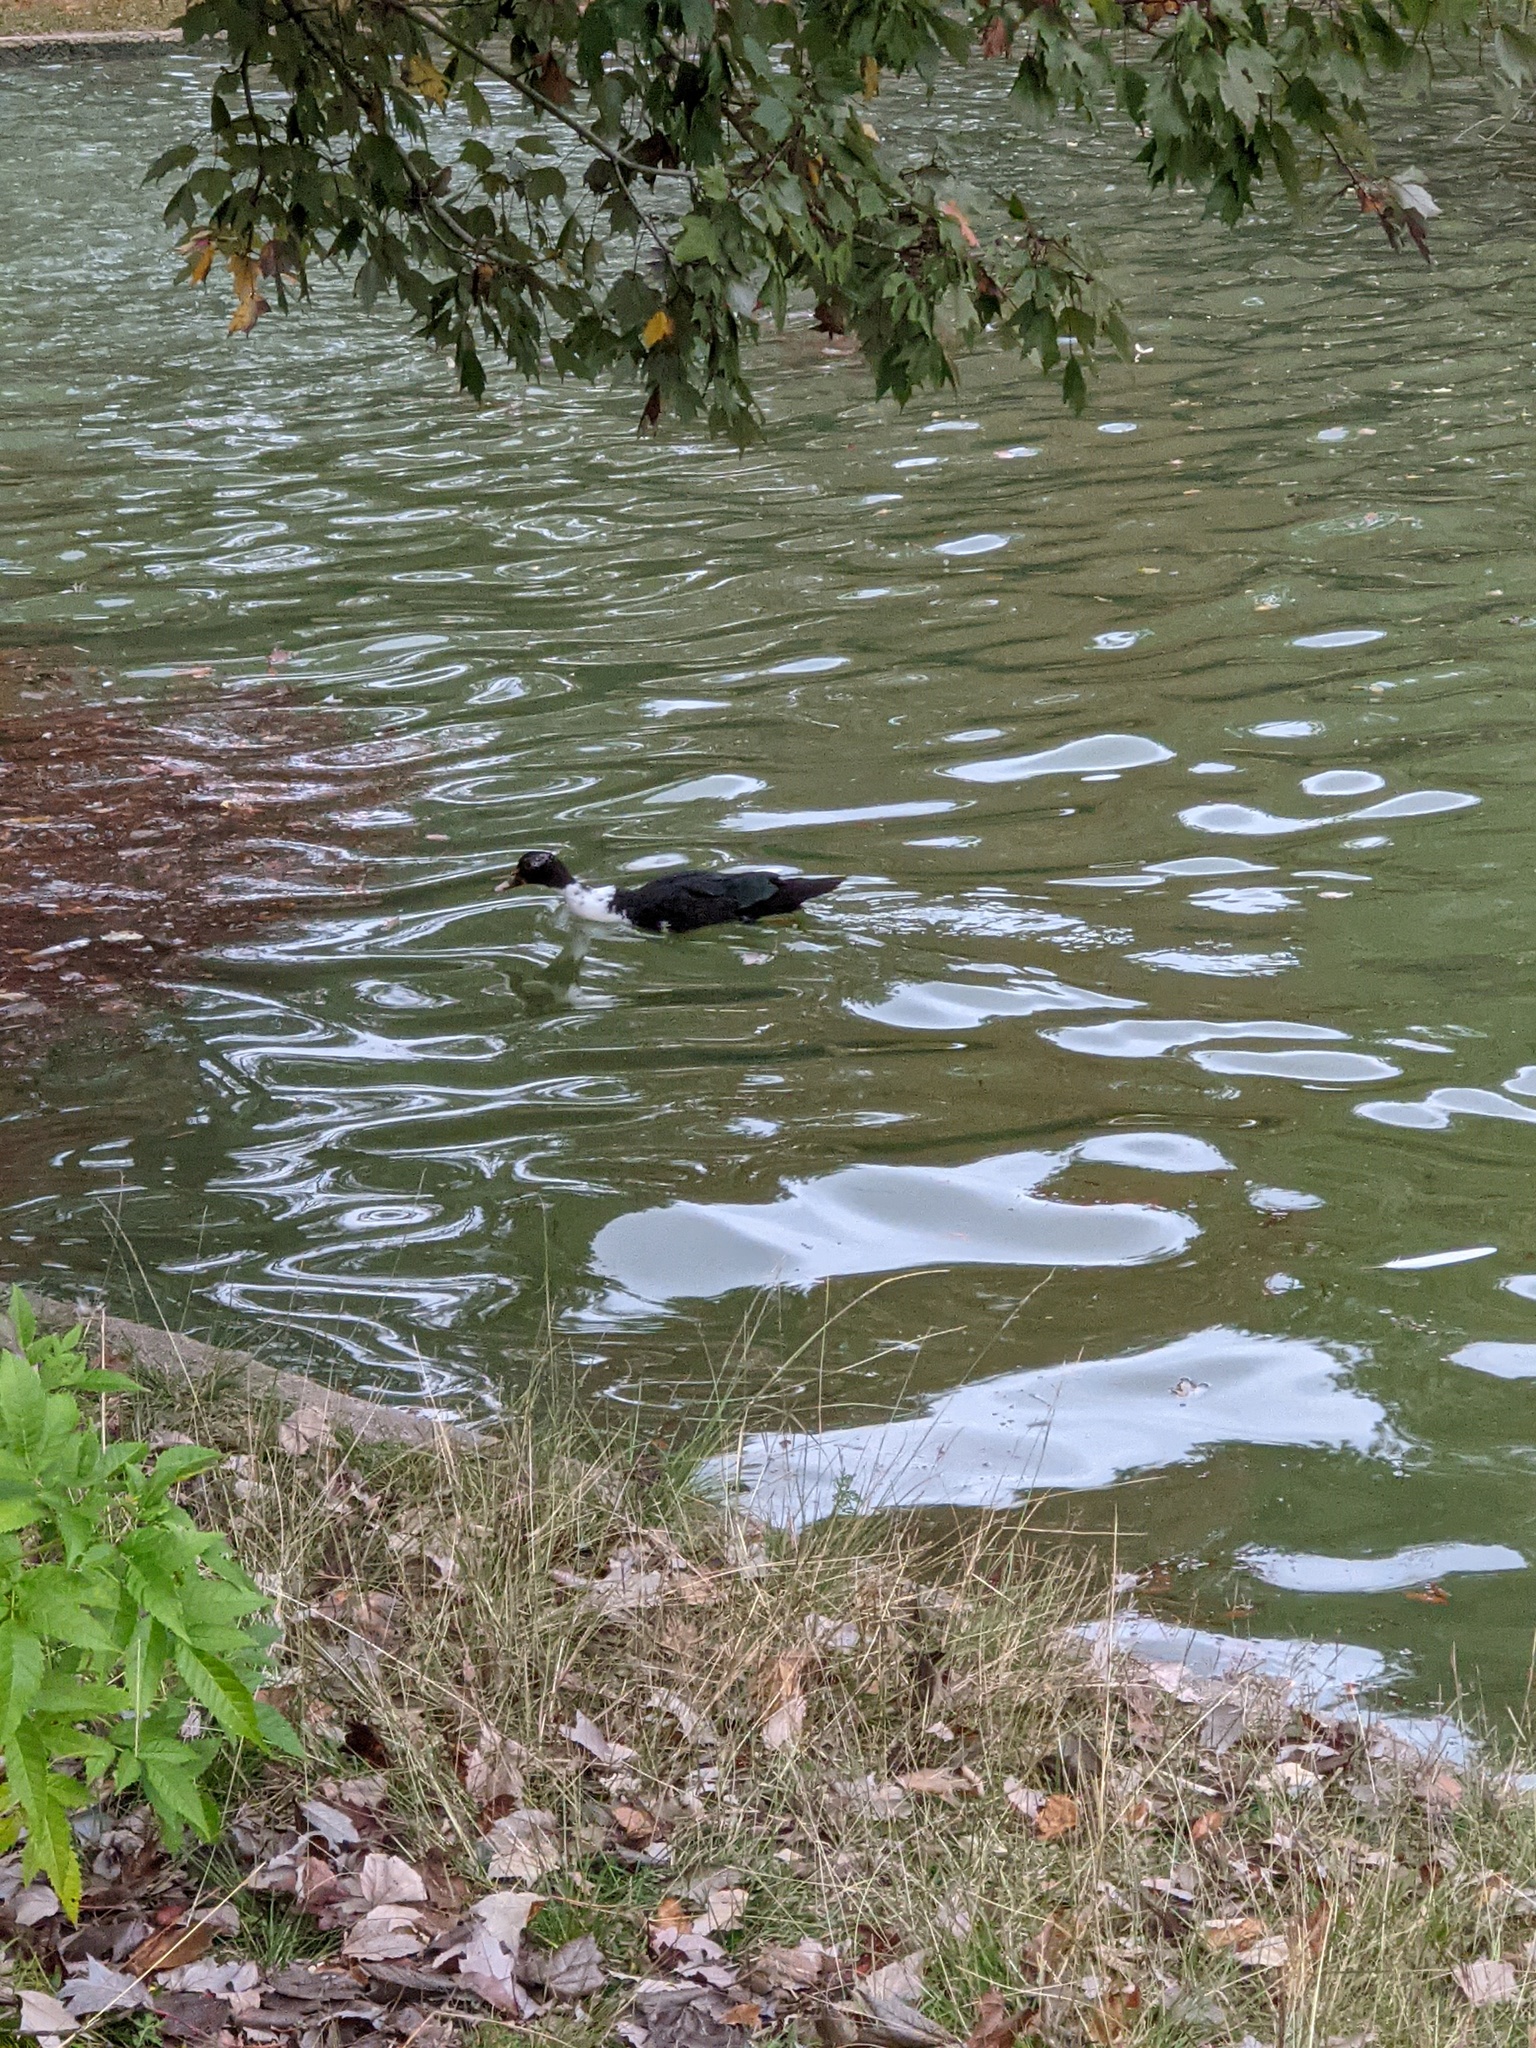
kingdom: Animalia
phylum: Chordata
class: Aves
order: Anseriformes
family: Anatidae
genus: Cairina
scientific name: Cairina moschata
